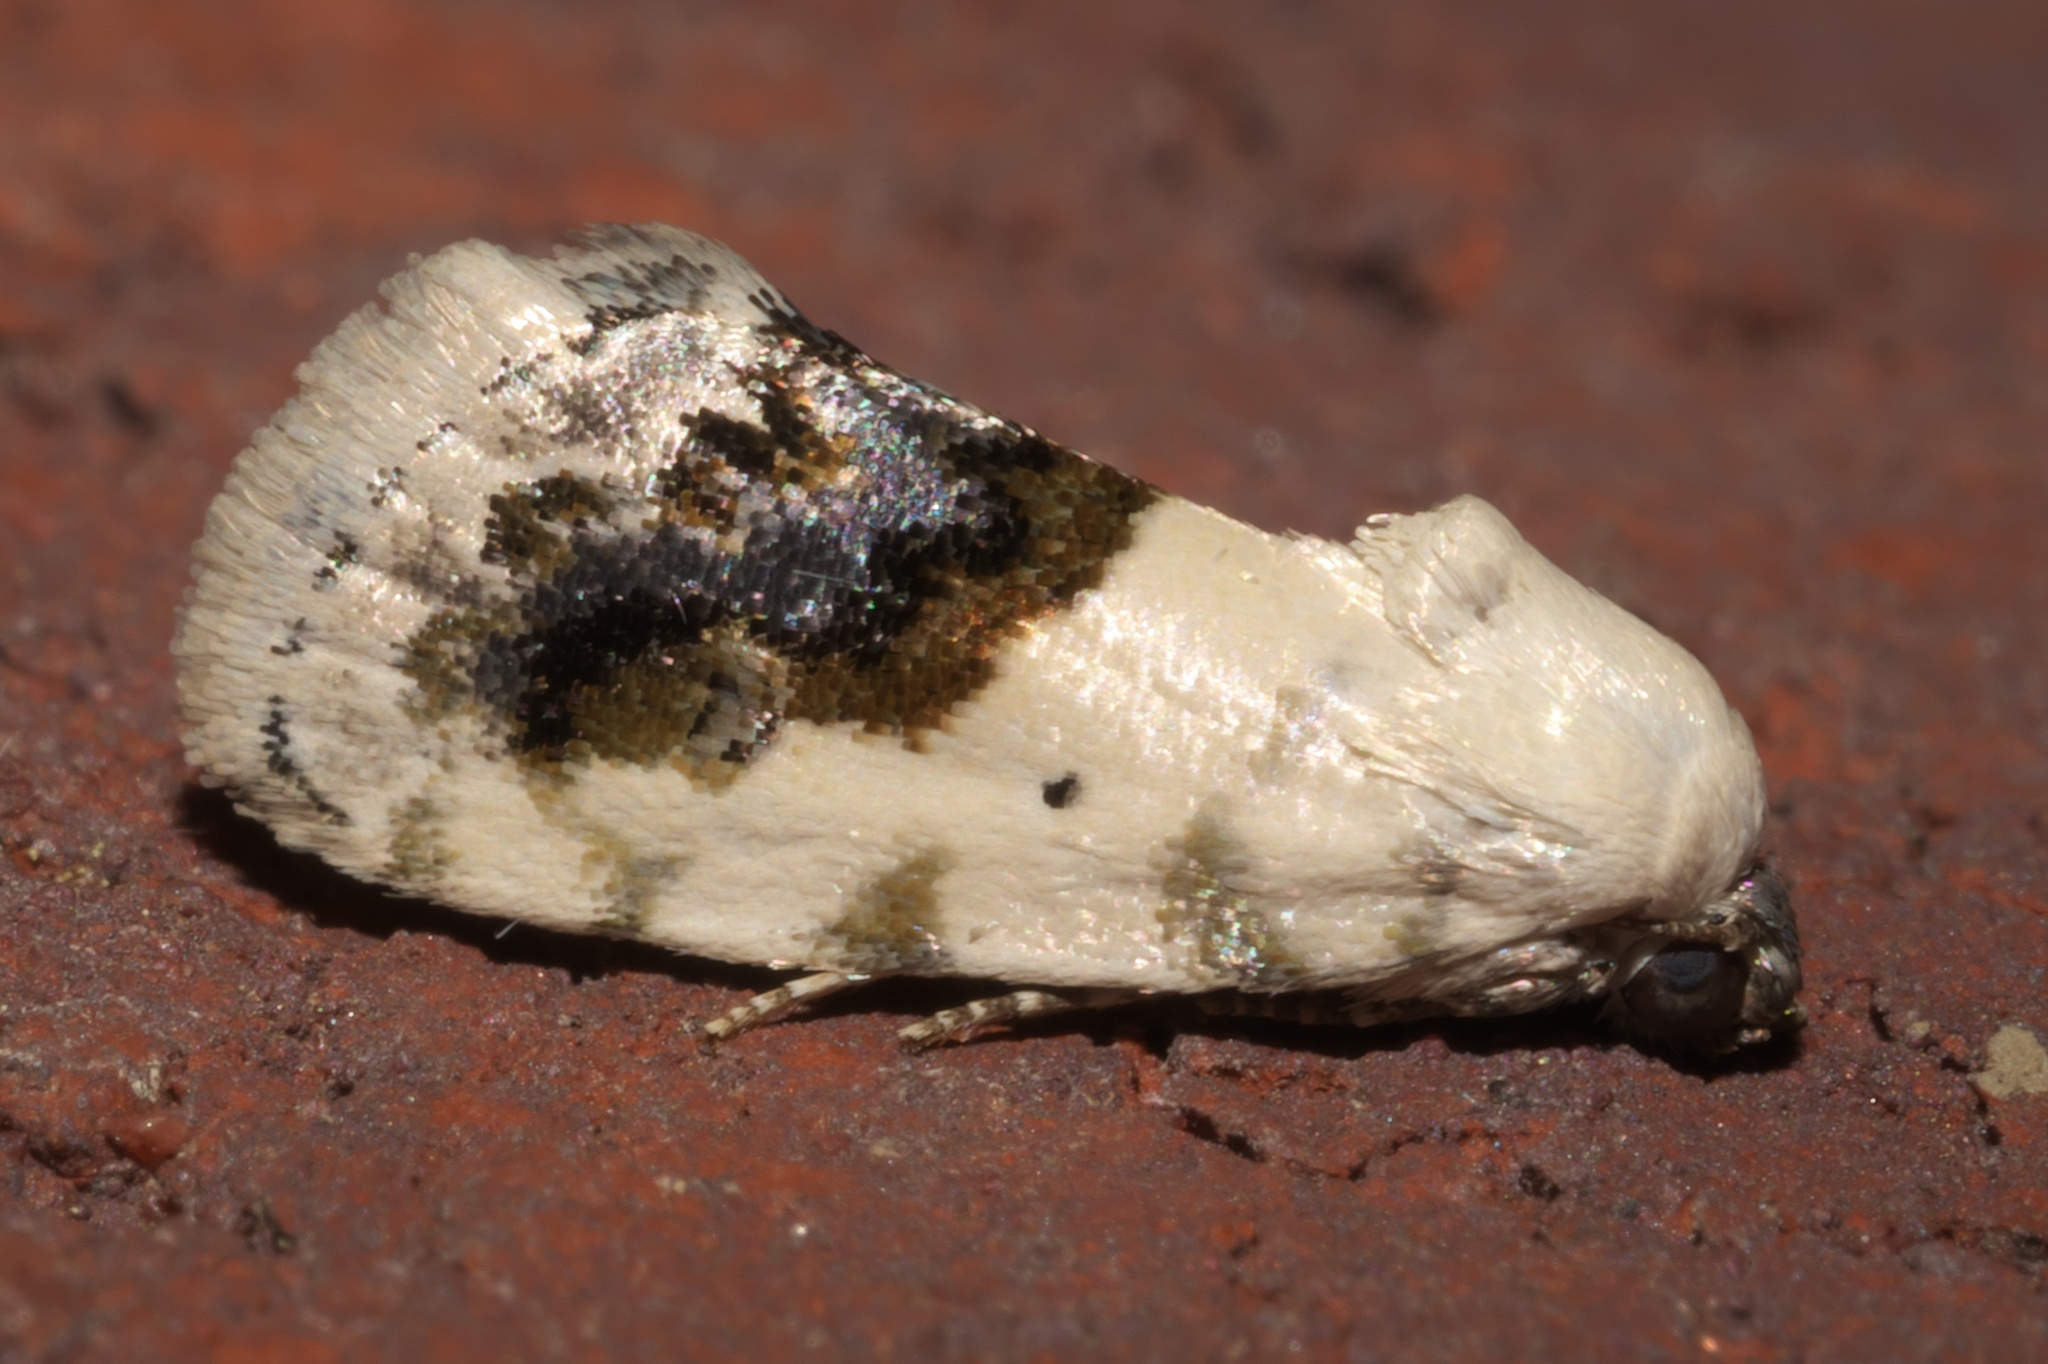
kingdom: Animalia
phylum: Arthropoda
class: Insecta
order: Lepidoptera
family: Noctuidae
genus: Acontia
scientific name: Acontia erastrioides
